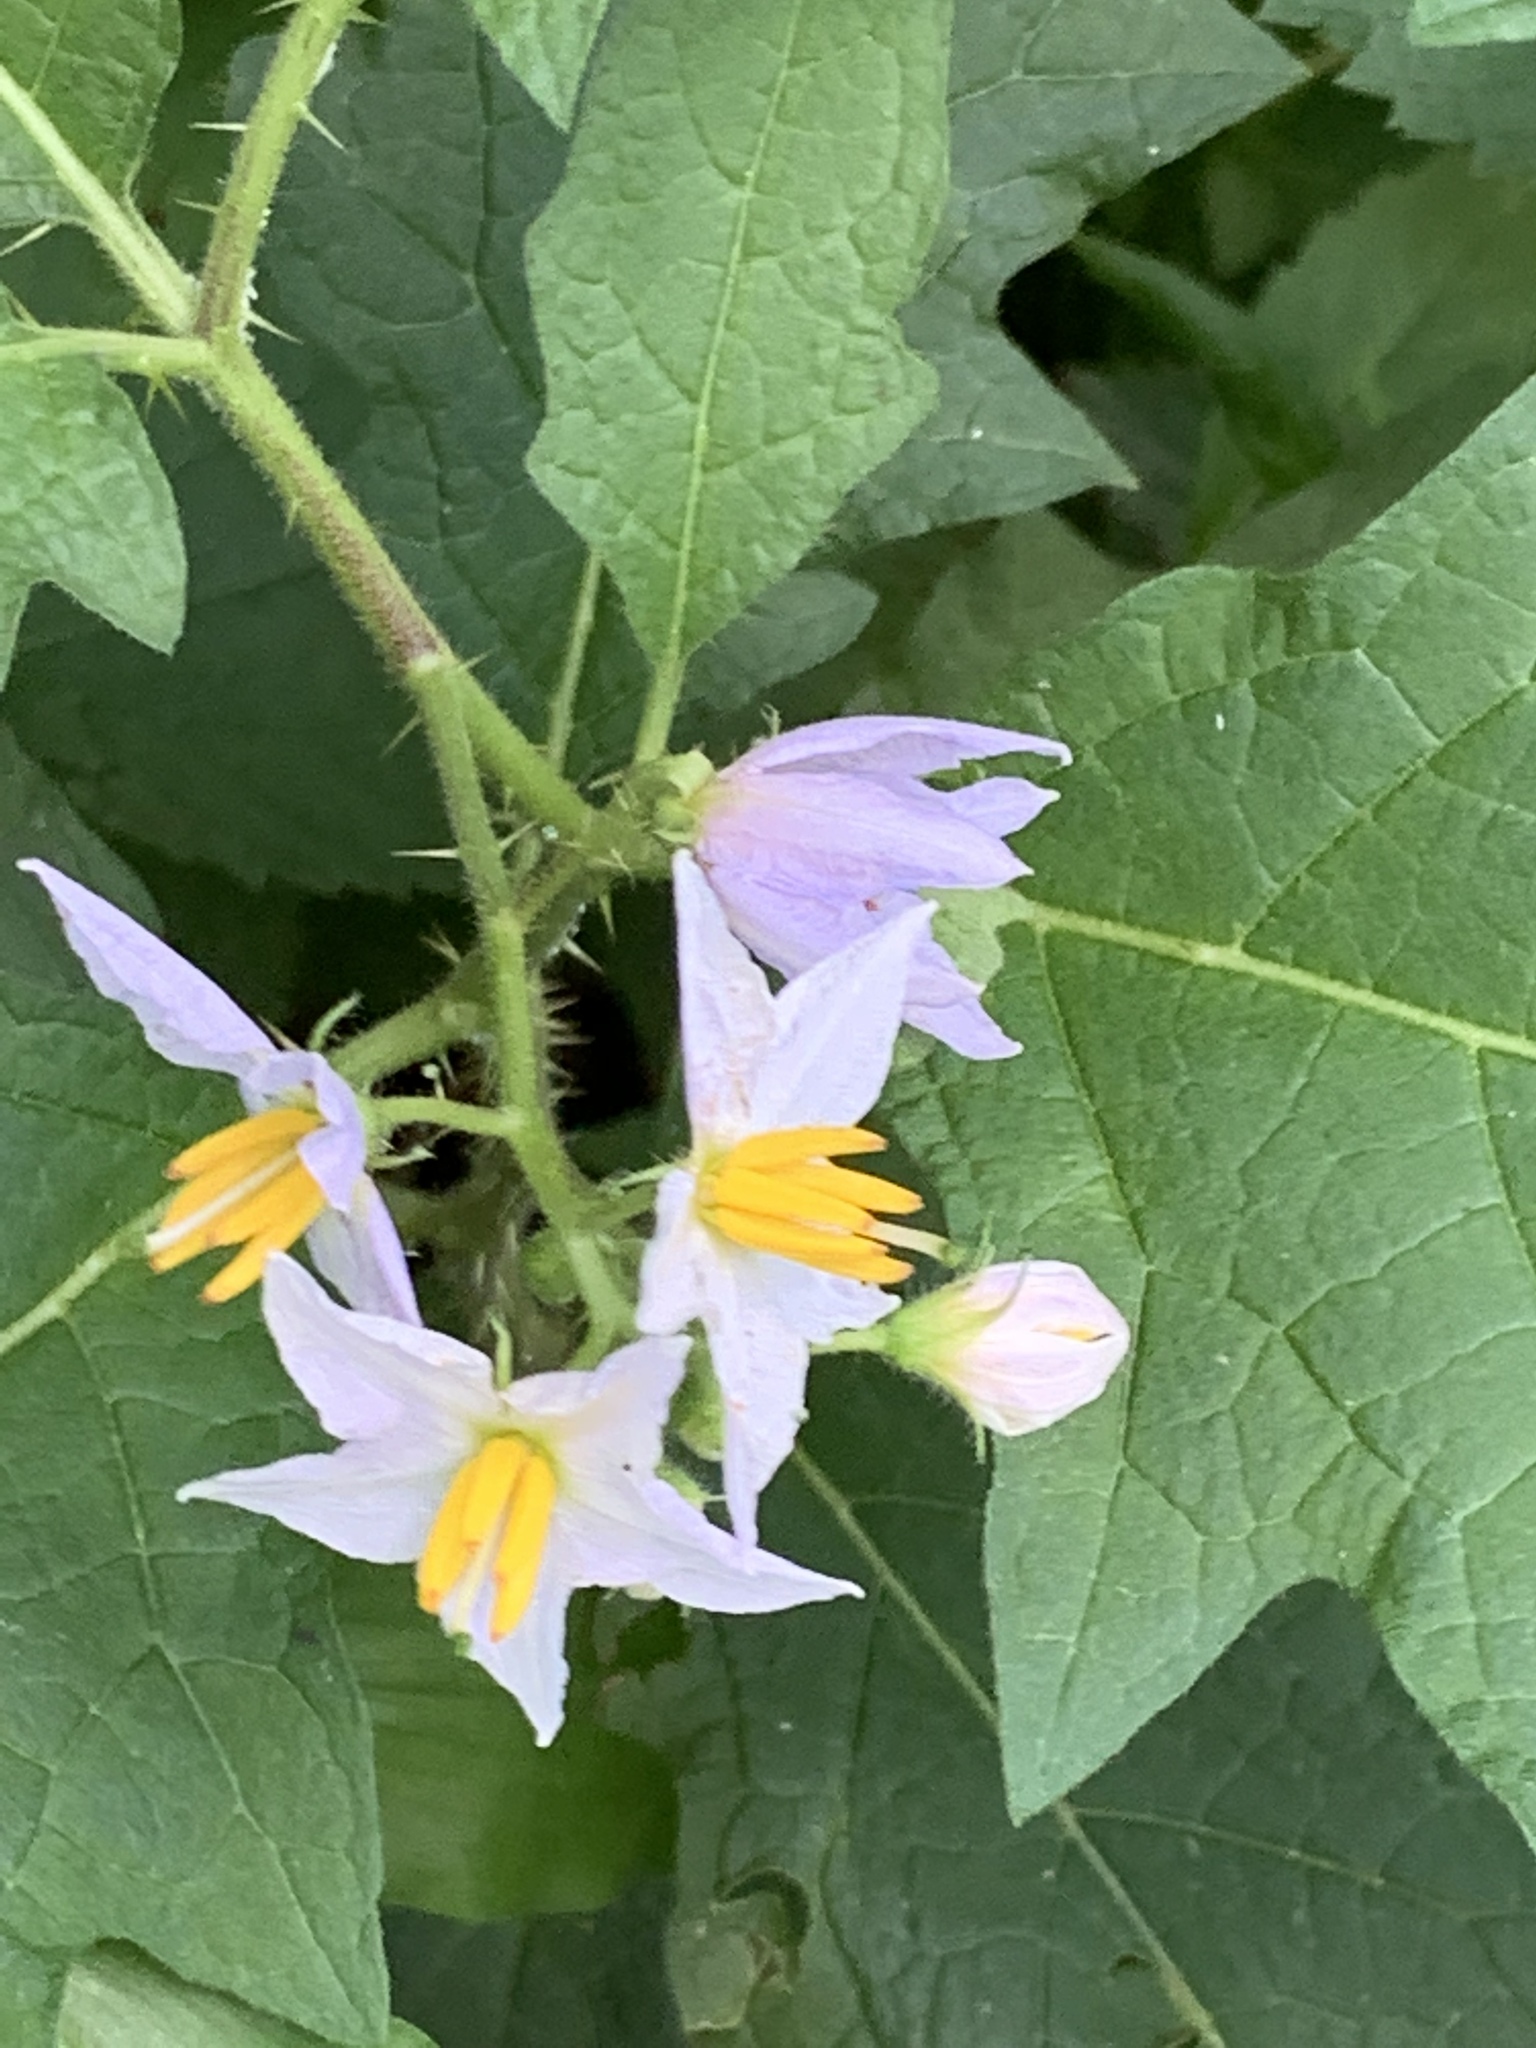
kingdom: Plantae
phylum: Tracheophyta
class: Magnoliopsida
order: Solanales
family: Solanaceae
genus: Solanum
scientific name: Solanum carolinense
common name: Horse-nettle
